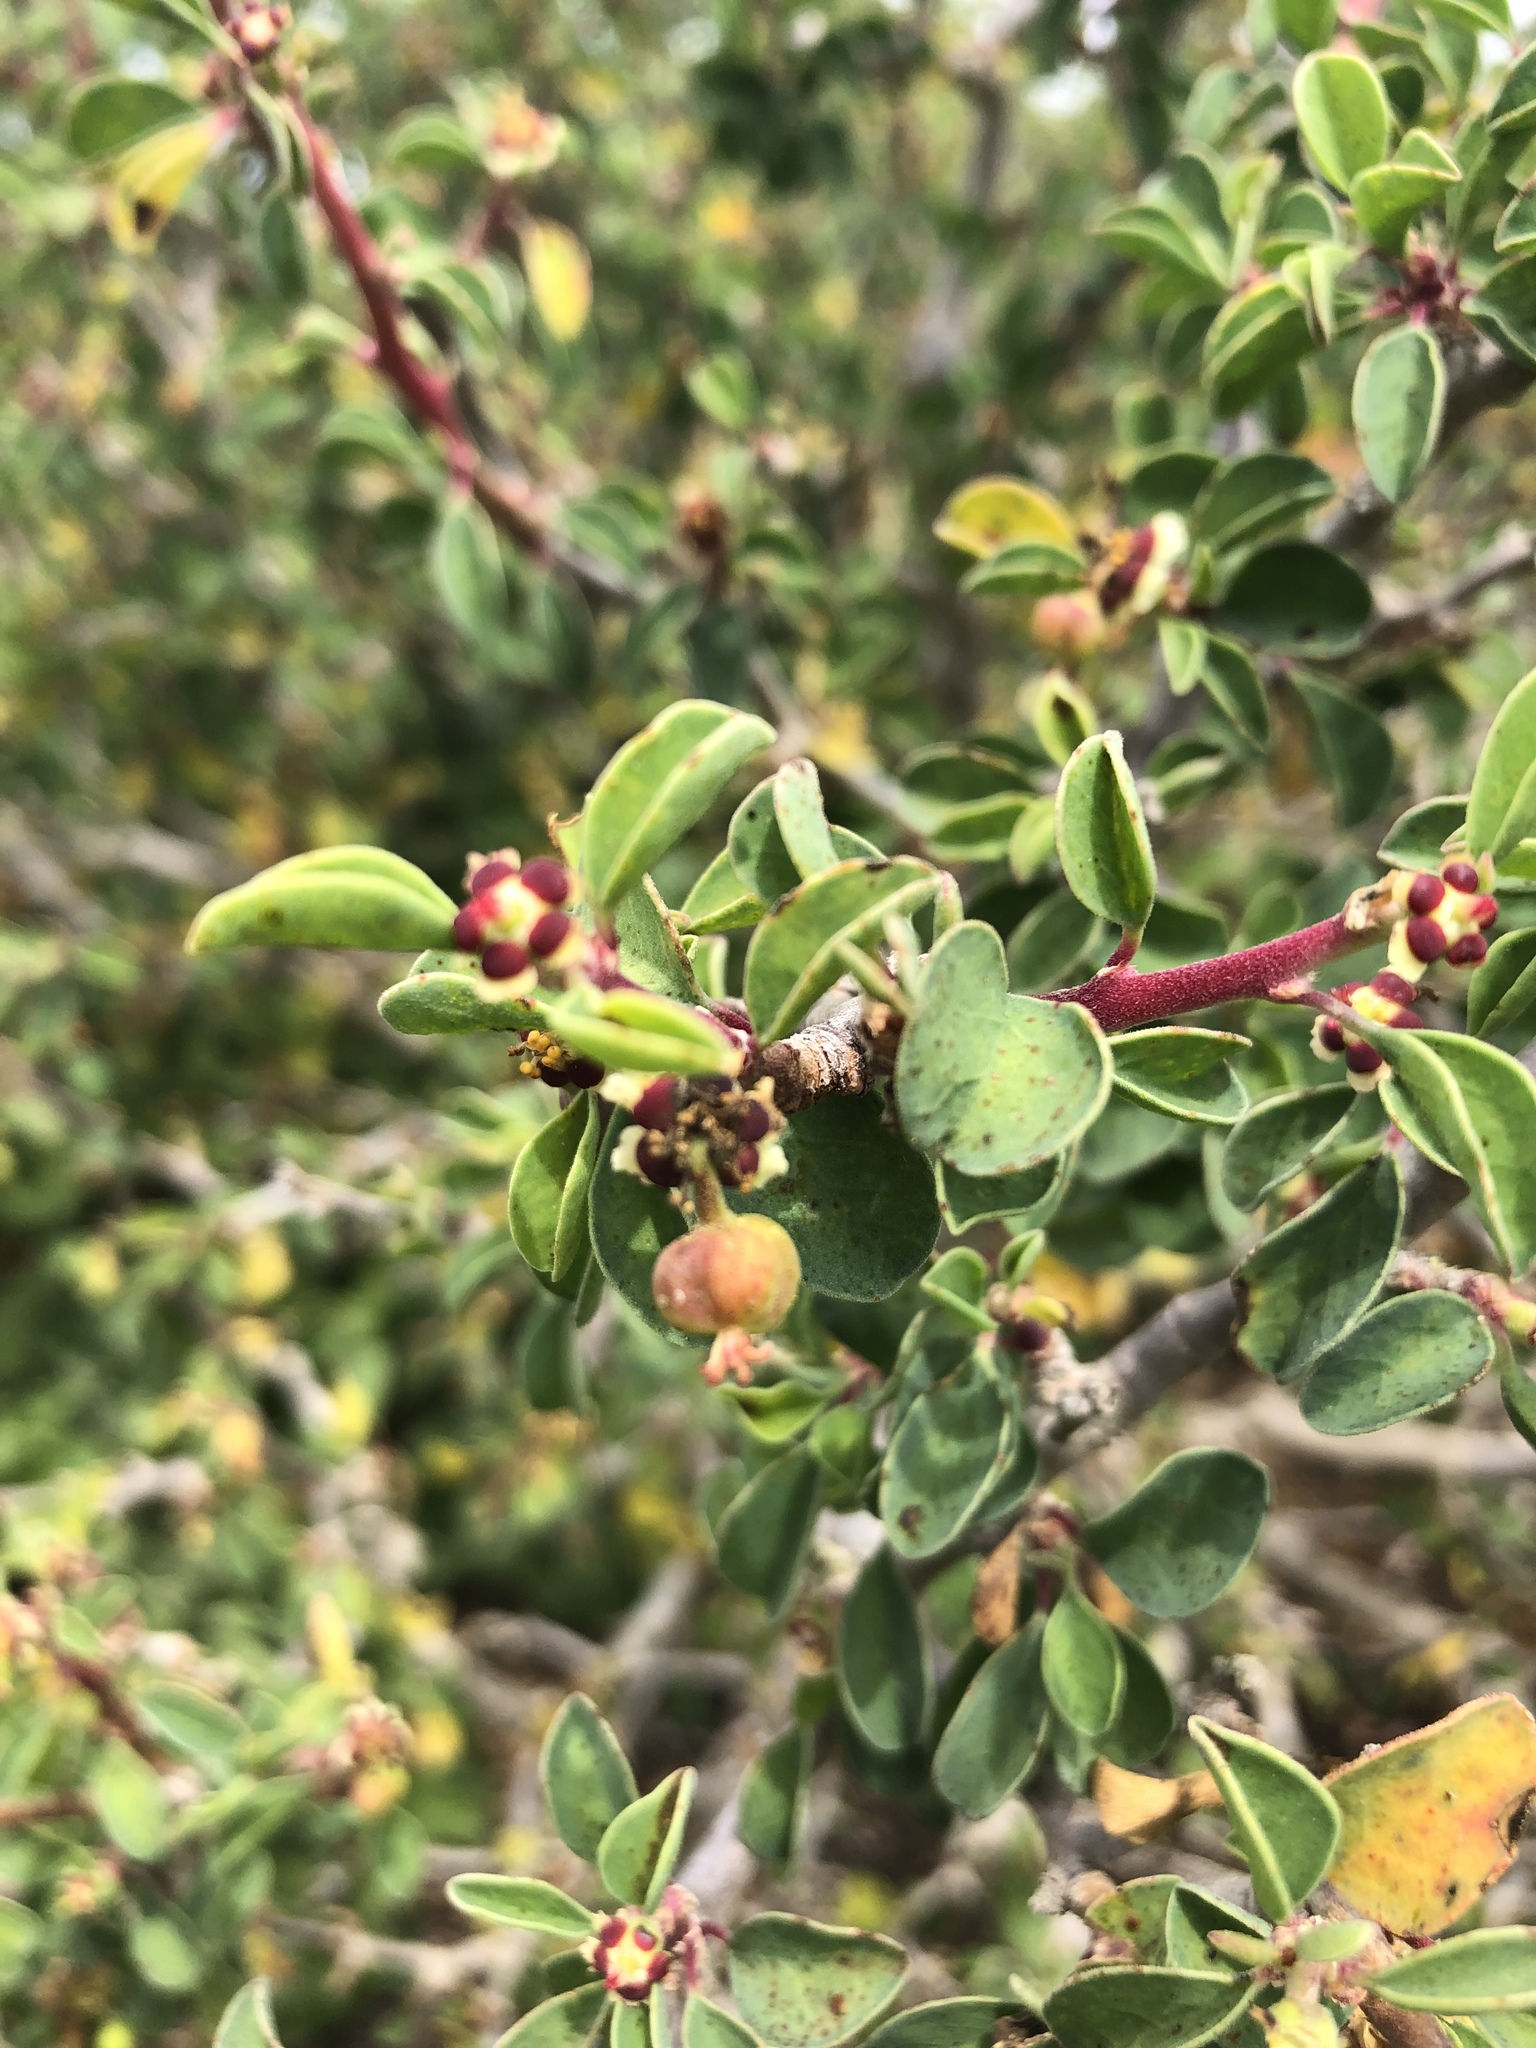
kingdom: Plantae
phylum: Tracheophyta
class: Magnoliopsida
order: Malpighiales
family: Euphorbiaceae
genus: Euphorbia
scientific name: Euphorbia misera
